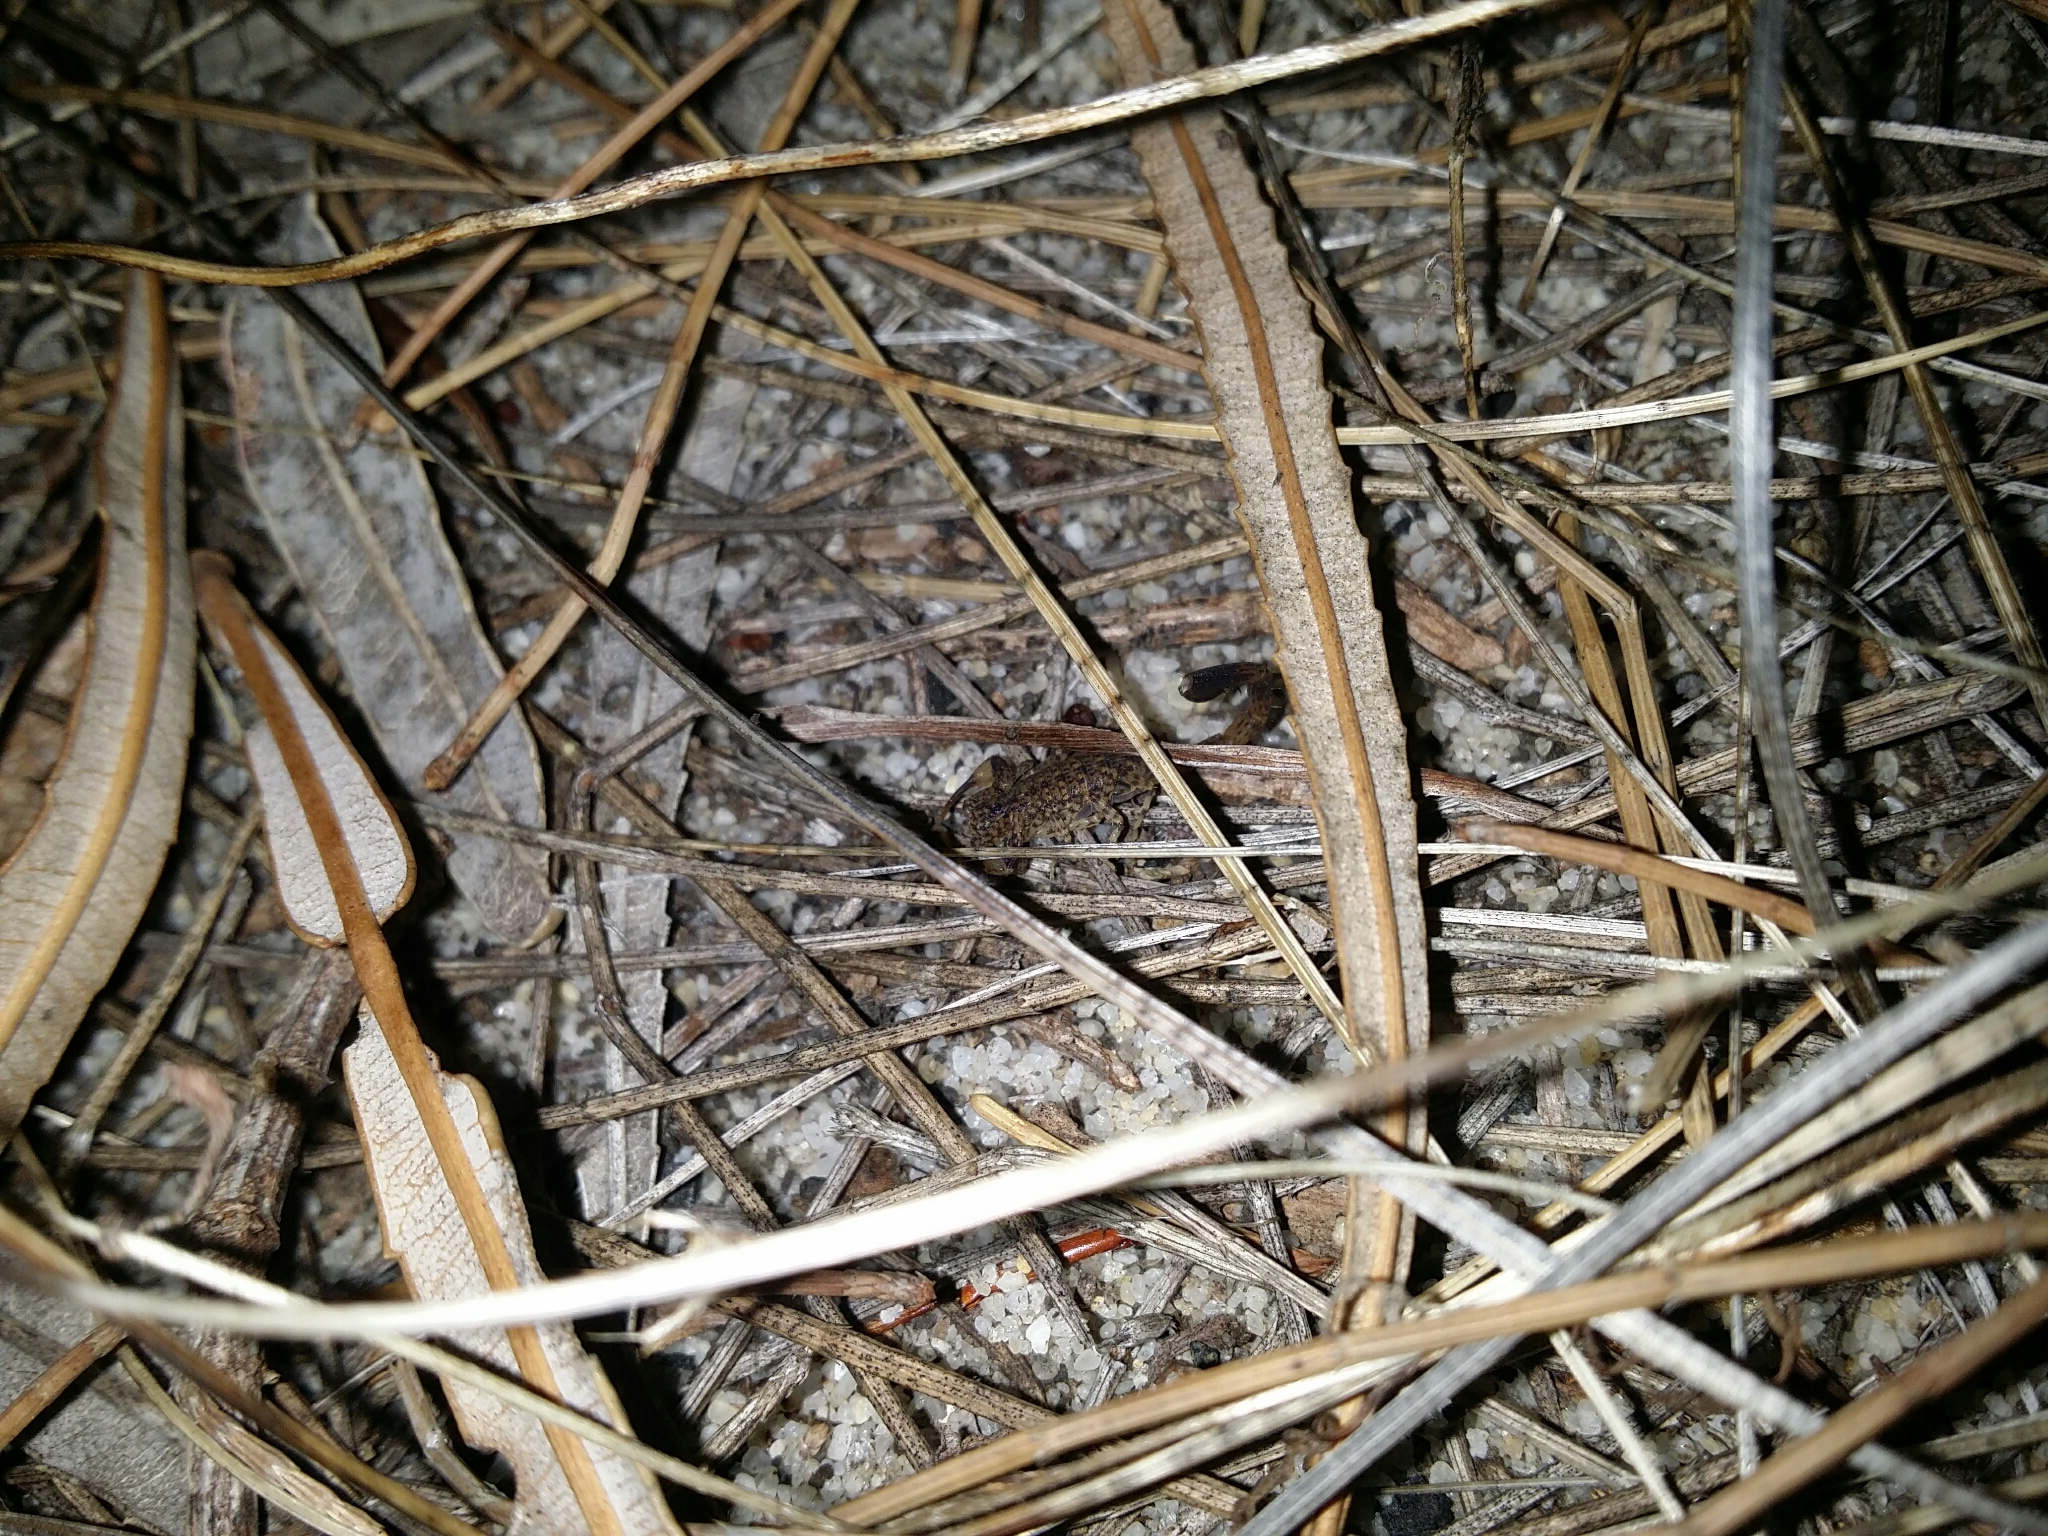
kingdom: Animalia
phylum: Arthropoda
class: Arachnida
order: Scorpiones
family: Buthidae
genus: Lychas
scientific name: Lychas marmoreus
